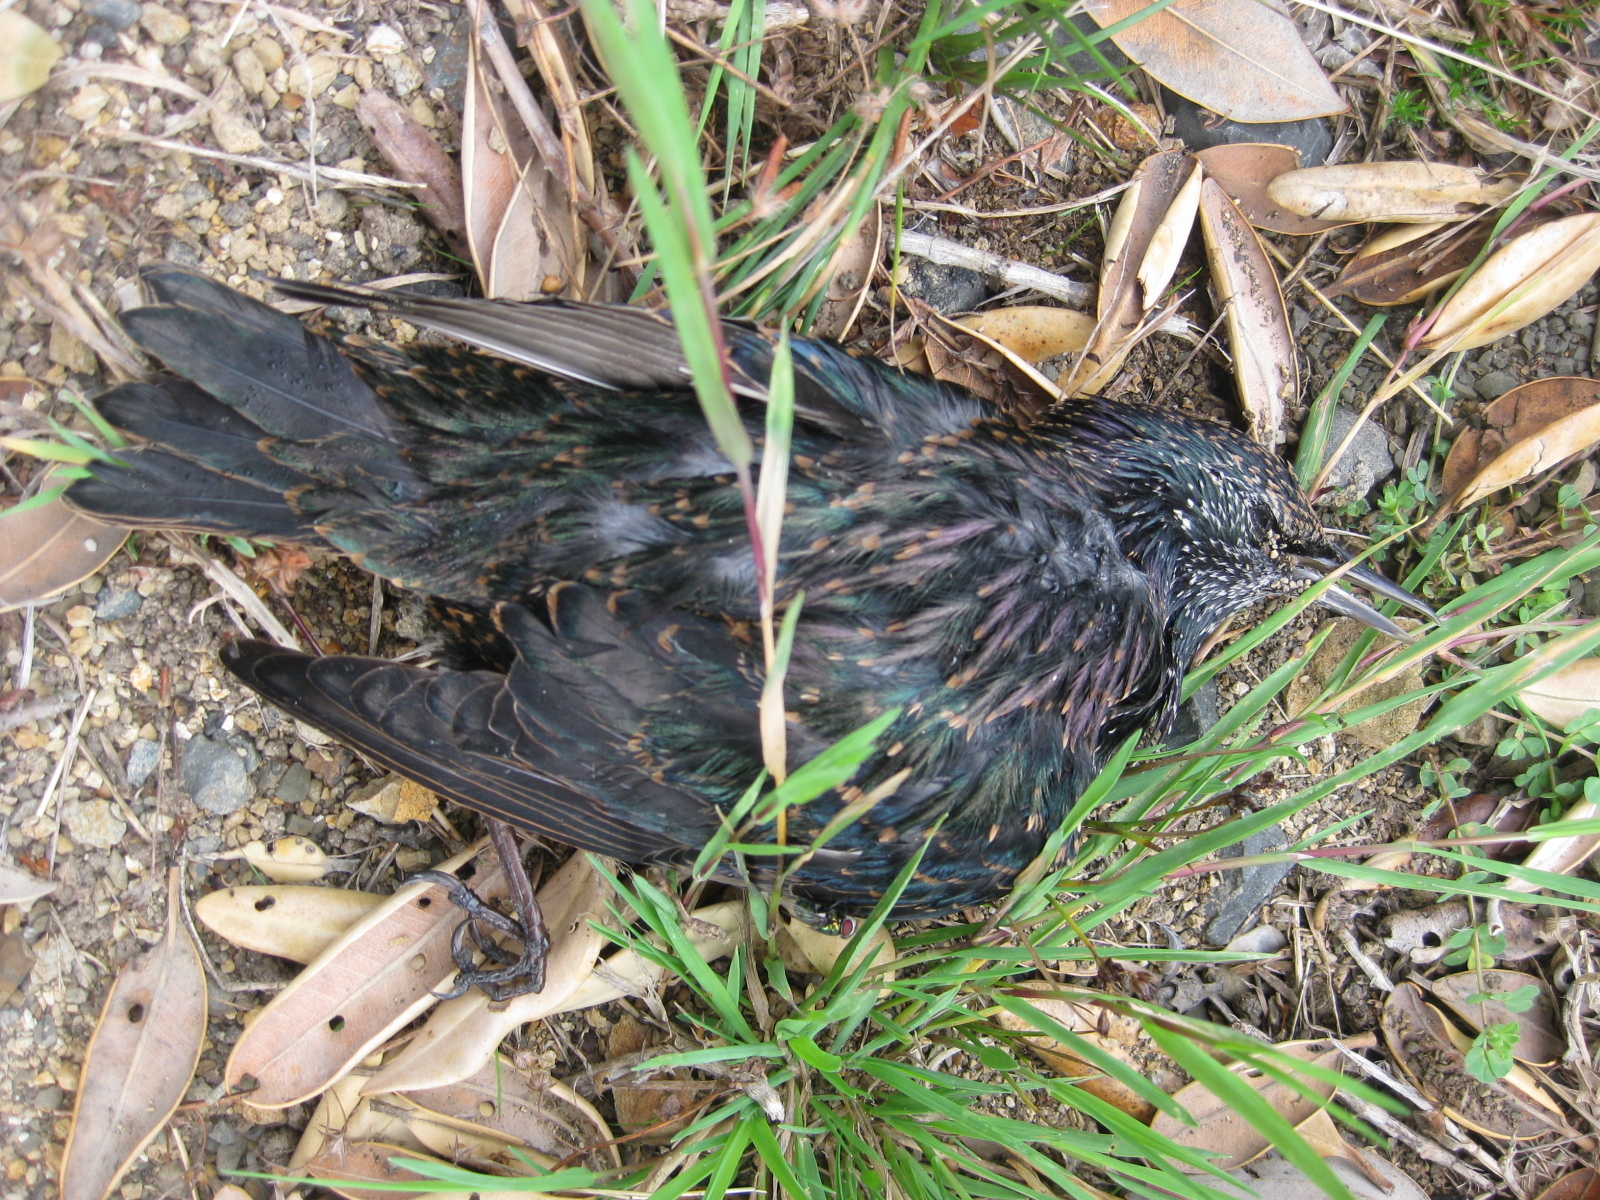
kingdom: Animalia
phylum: Chordata
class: Aves
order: Passeriformes
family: Sturnidae
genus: Sturnus
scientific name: Sturnus vulgaris
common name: Common starling
